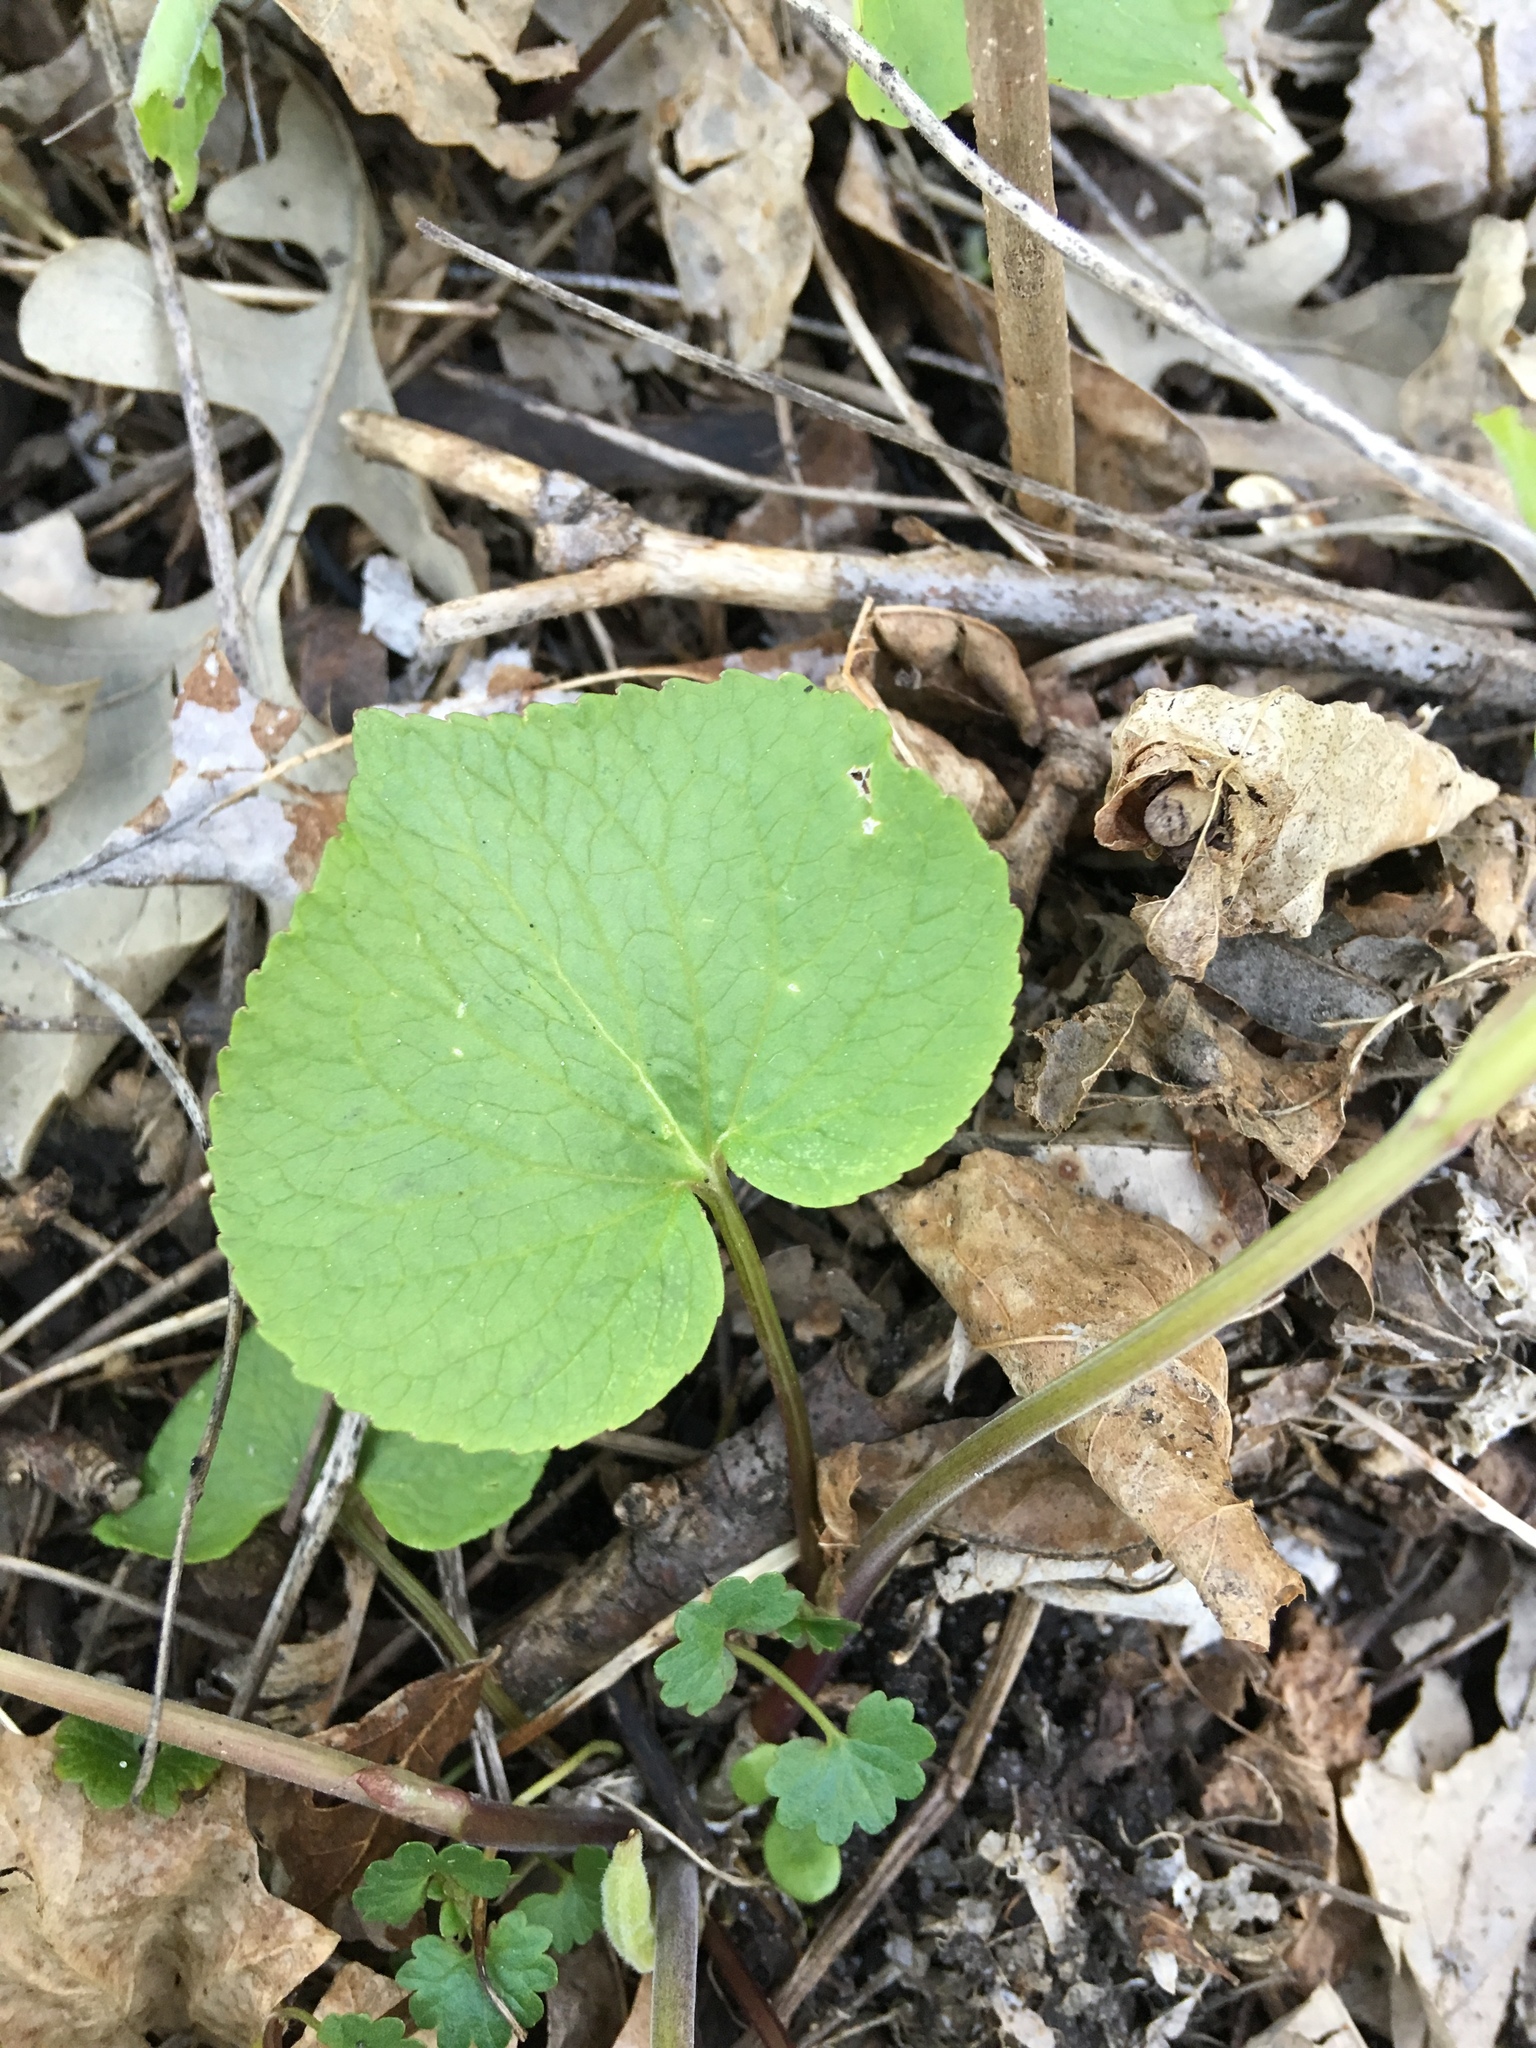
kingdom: Plantae
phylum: Tracheophyta
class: Magnoliopsida
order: Malpighiales
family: Violaceae
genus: Viola
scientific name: Viola canadensis
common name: Canada violet
